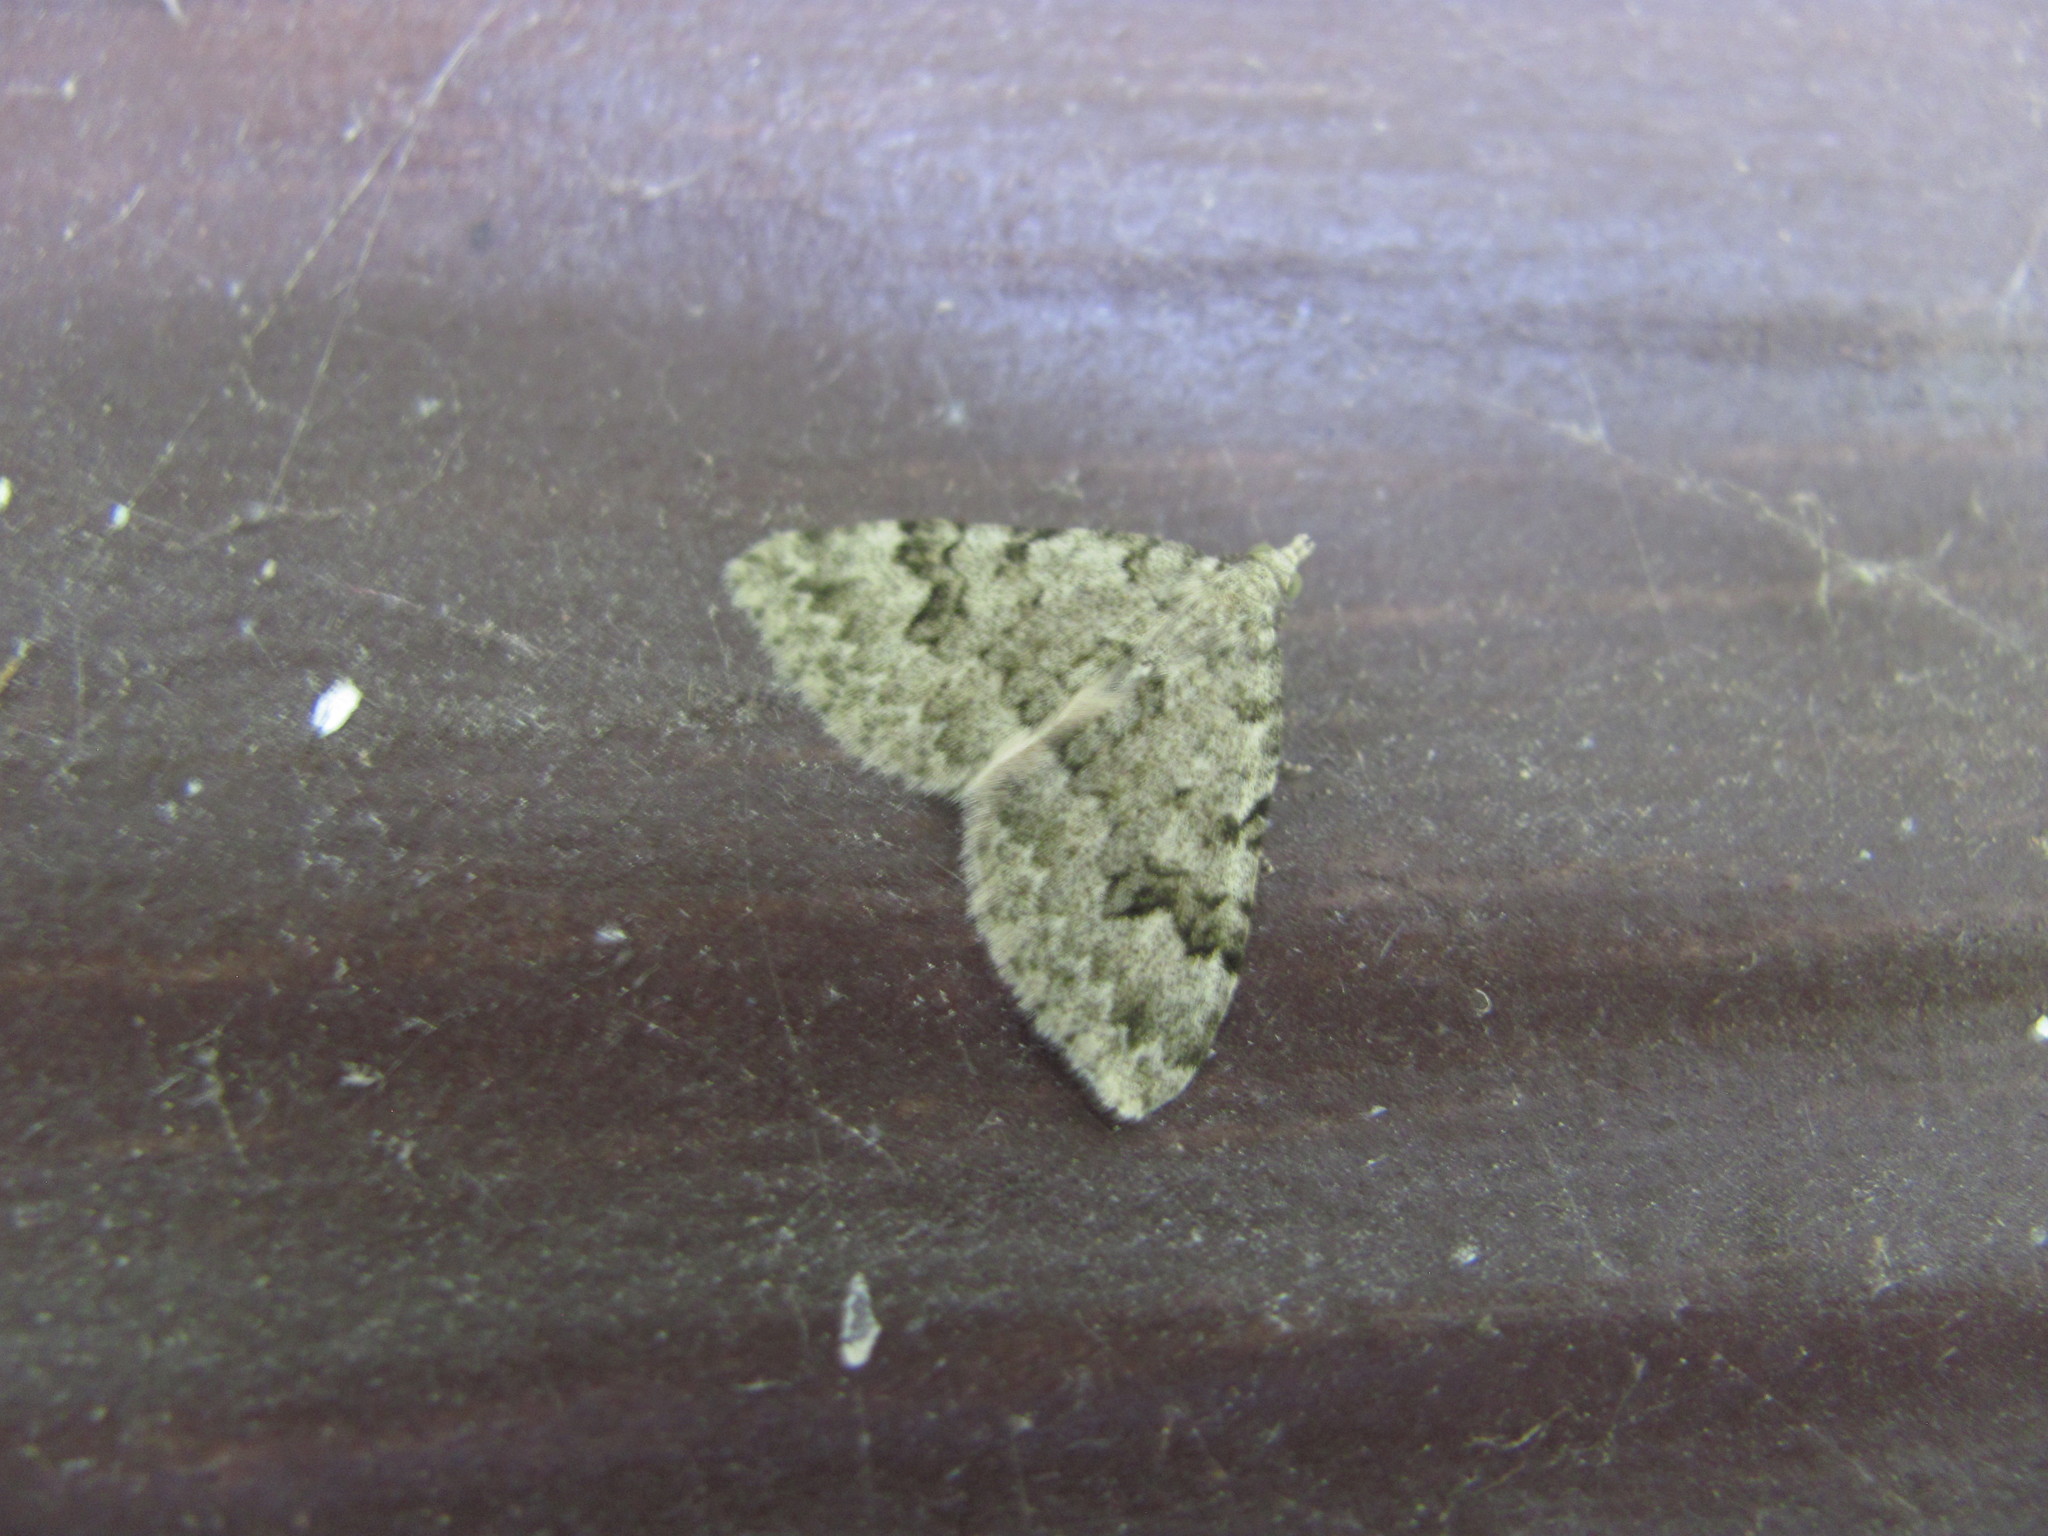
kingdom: Animalia
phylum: Arthropoda
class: Insecta
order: Lepidoptera
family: Geometridae
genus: Helastia
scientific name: Helastia cinerearia
